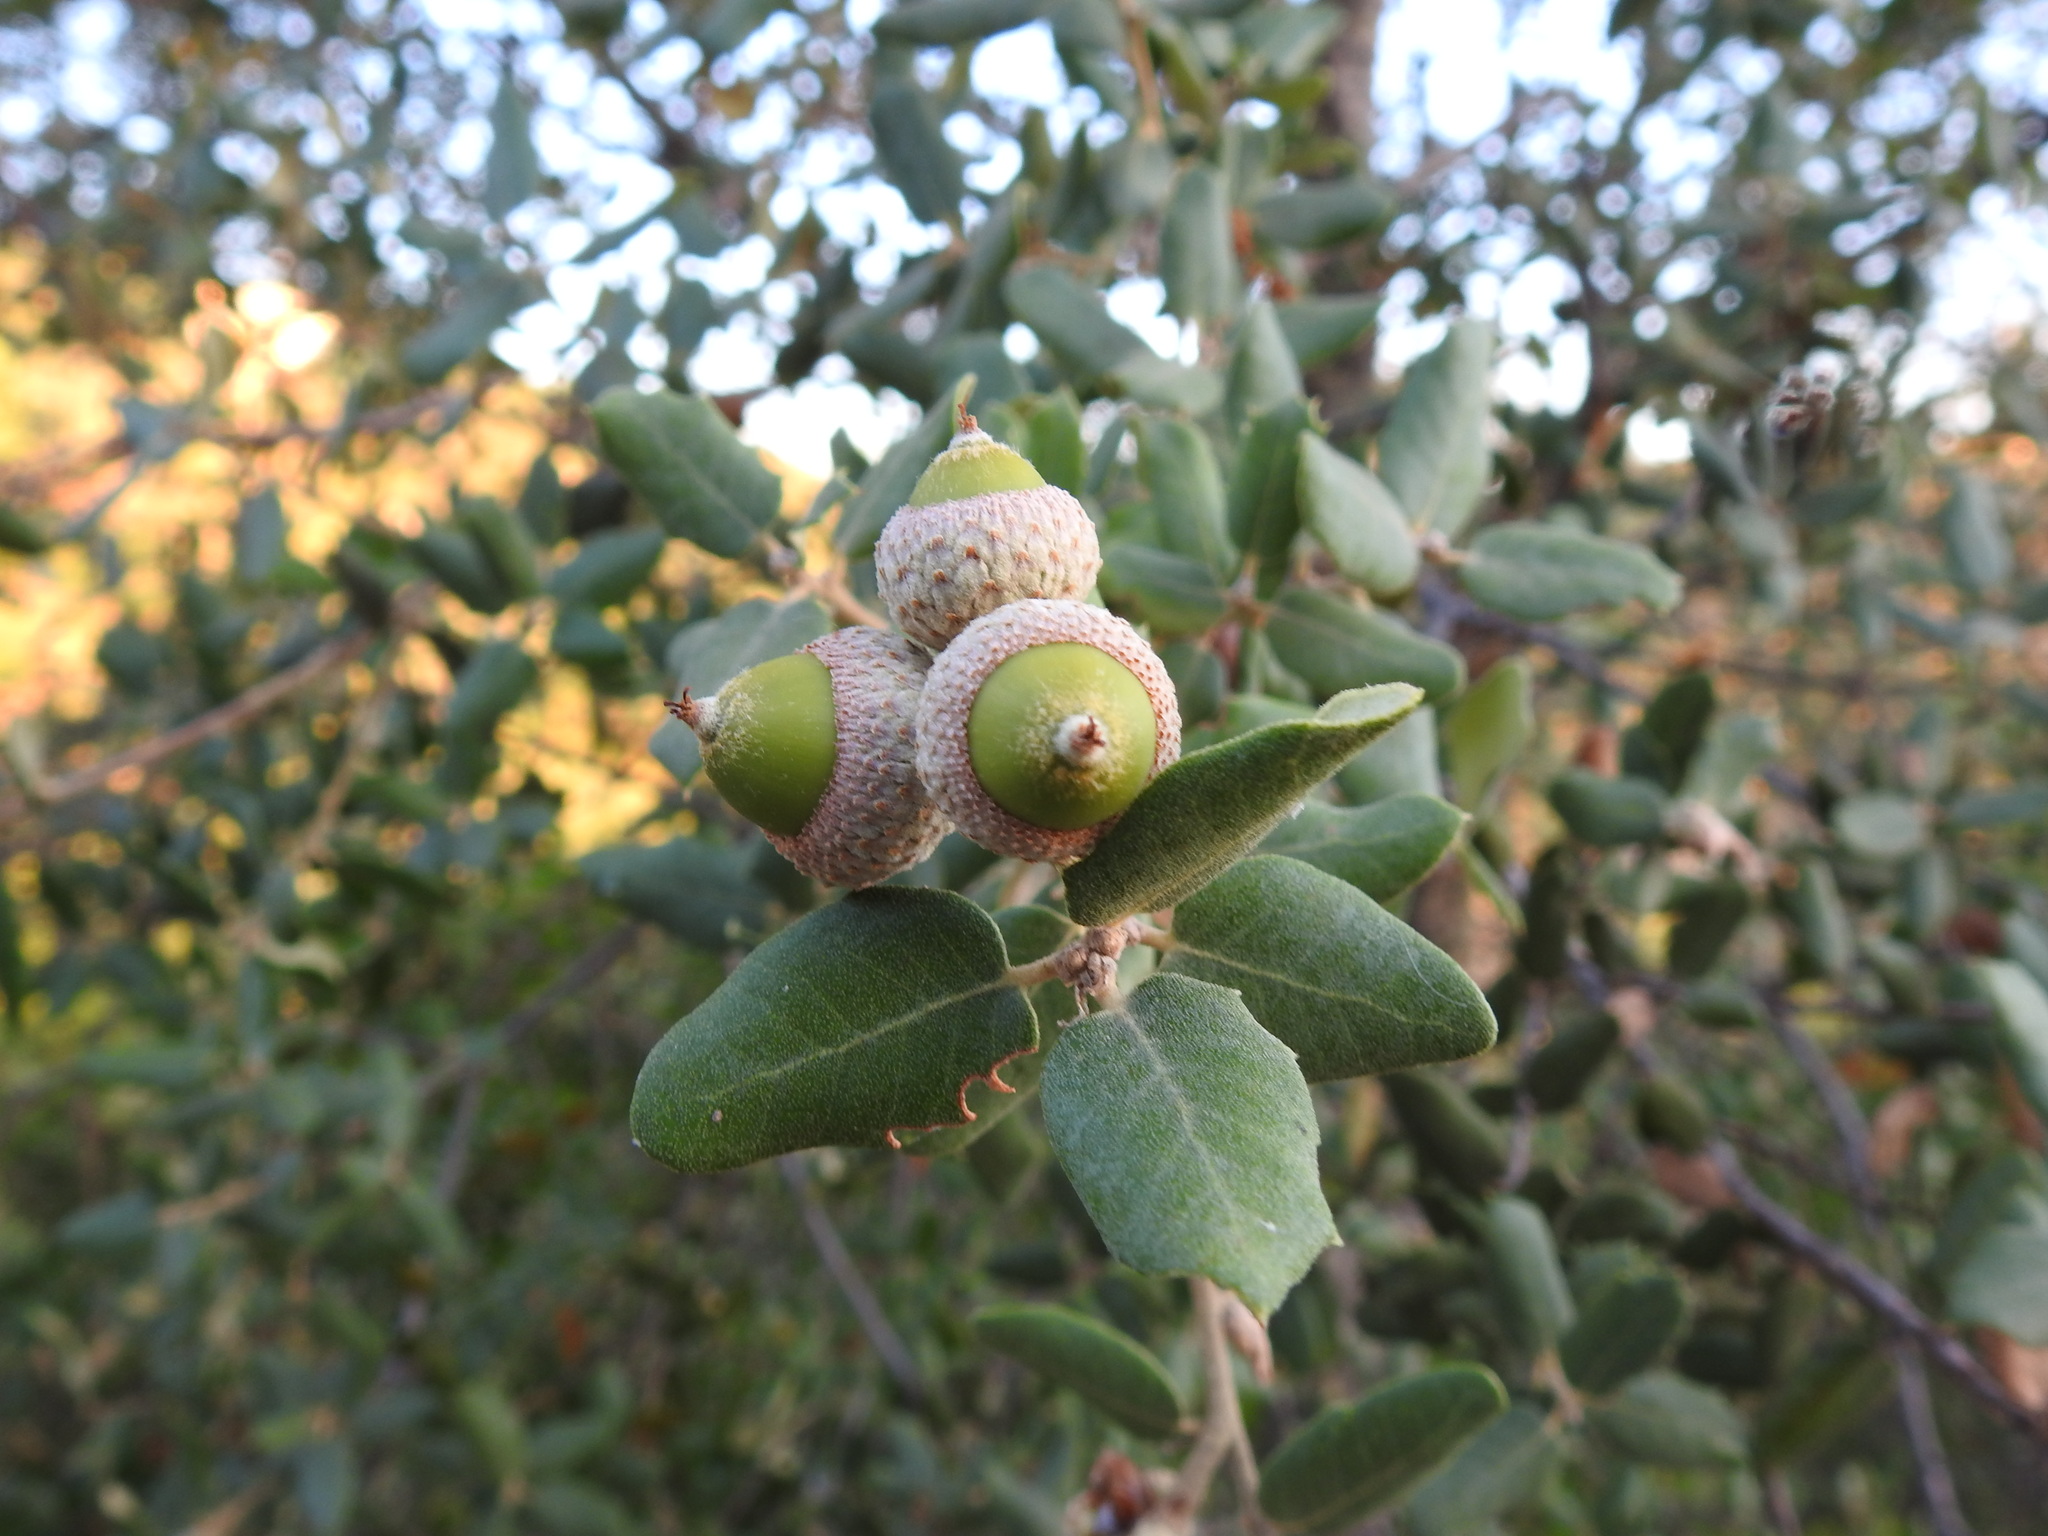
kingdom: Plantae
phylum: Tracheophyta
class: Magnoliopsida
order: Fagales
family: Fagaceae
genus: Quercus
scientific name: Quercus rotundifolia
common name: Holm oak
